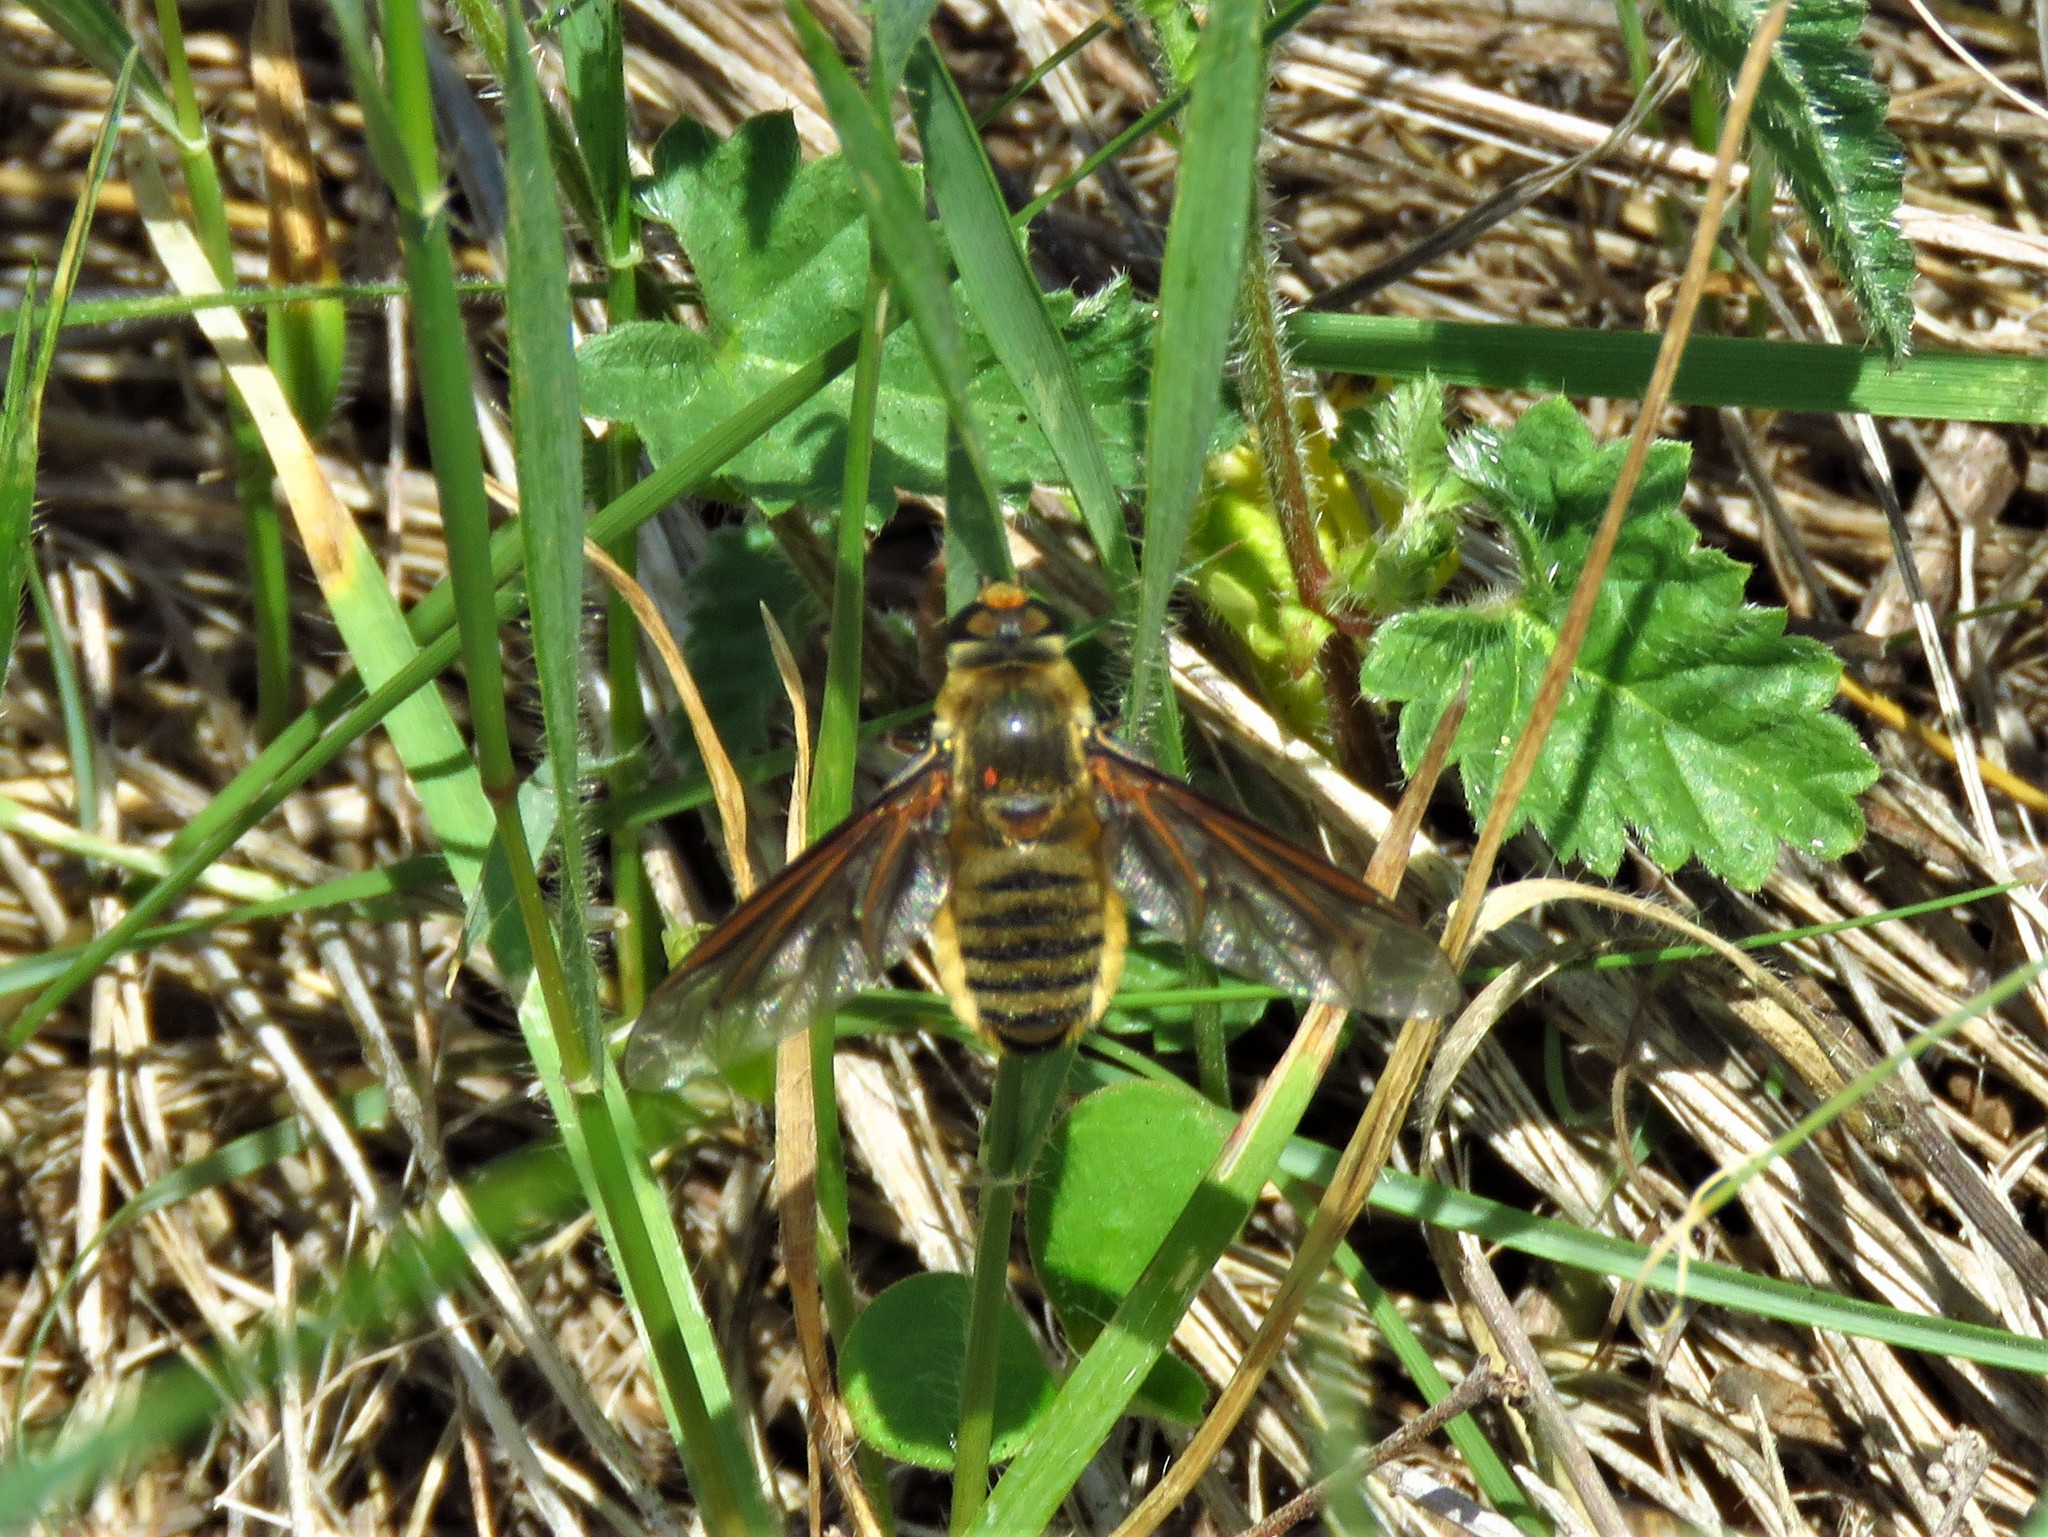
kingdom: Animalia
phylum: Arthropoda
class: Insecta
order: Diptera
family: Bombyliidae
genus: Poecilanthrax
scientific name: Poecilanthrax lucifer
